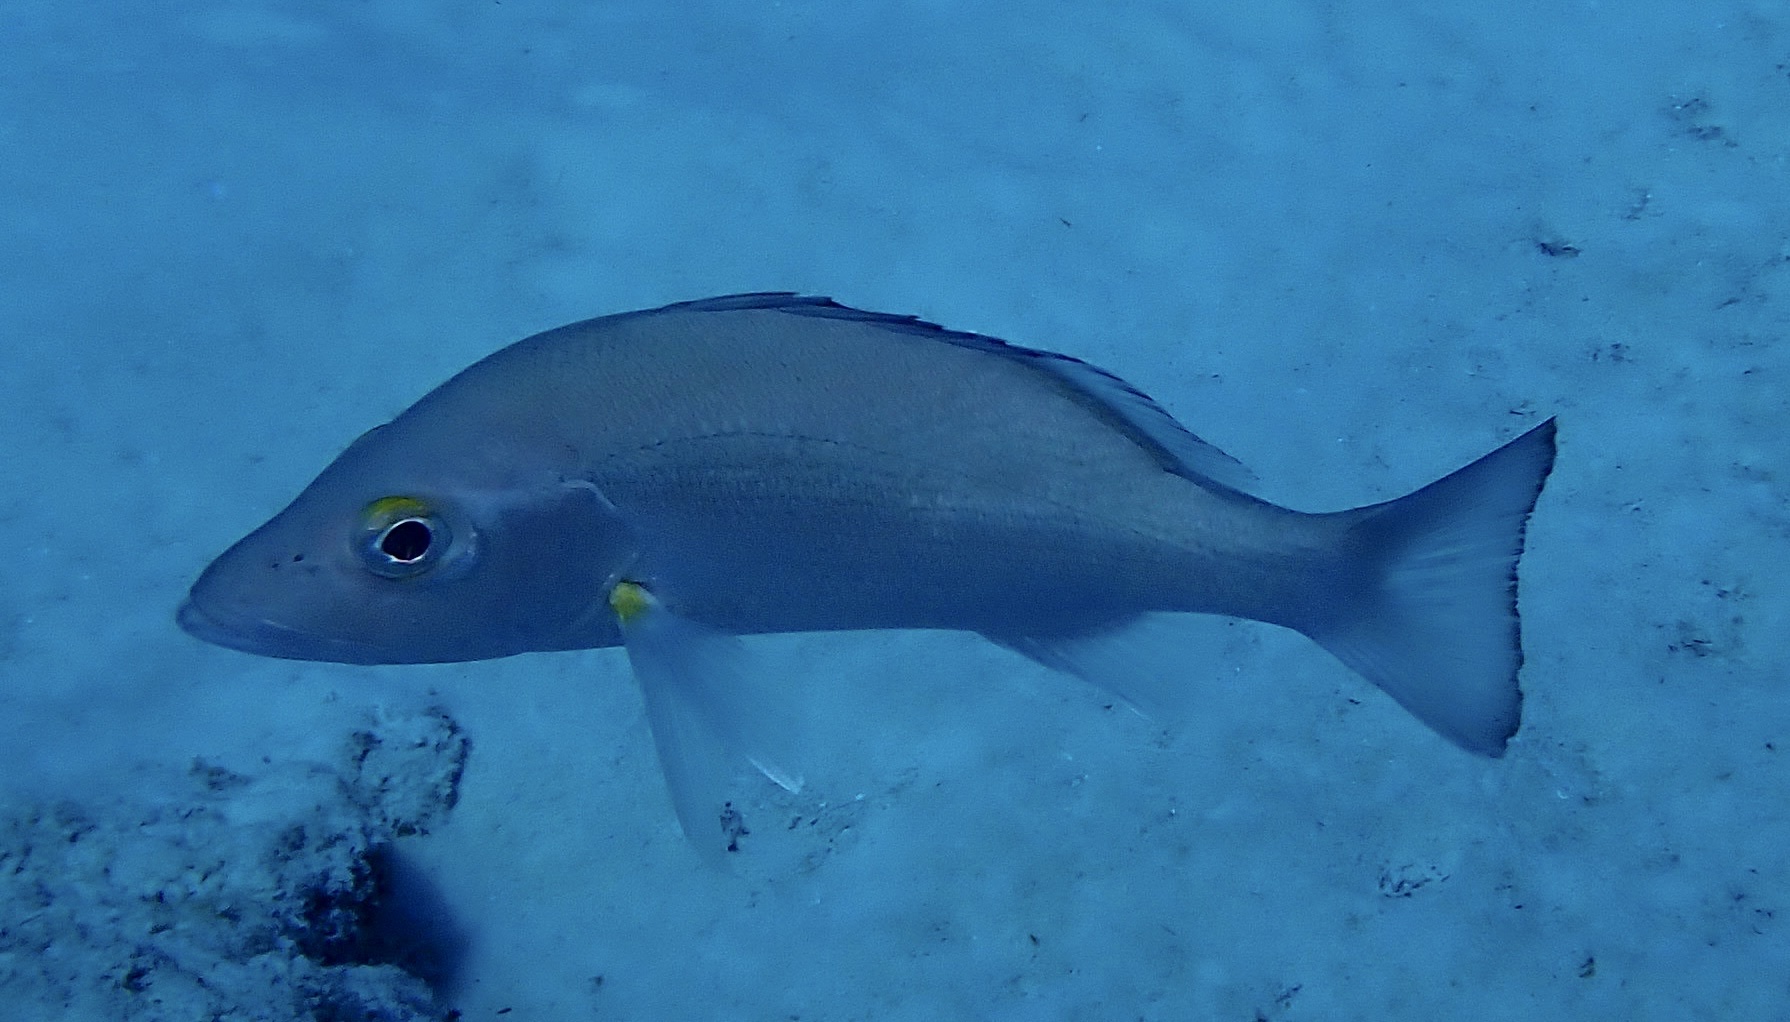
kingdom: Animalia
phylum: Chordata
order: Perciformes
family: Lutjanidae
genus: Lutjanus
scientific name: Lutjanus mahogoni
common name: Spot snapper
